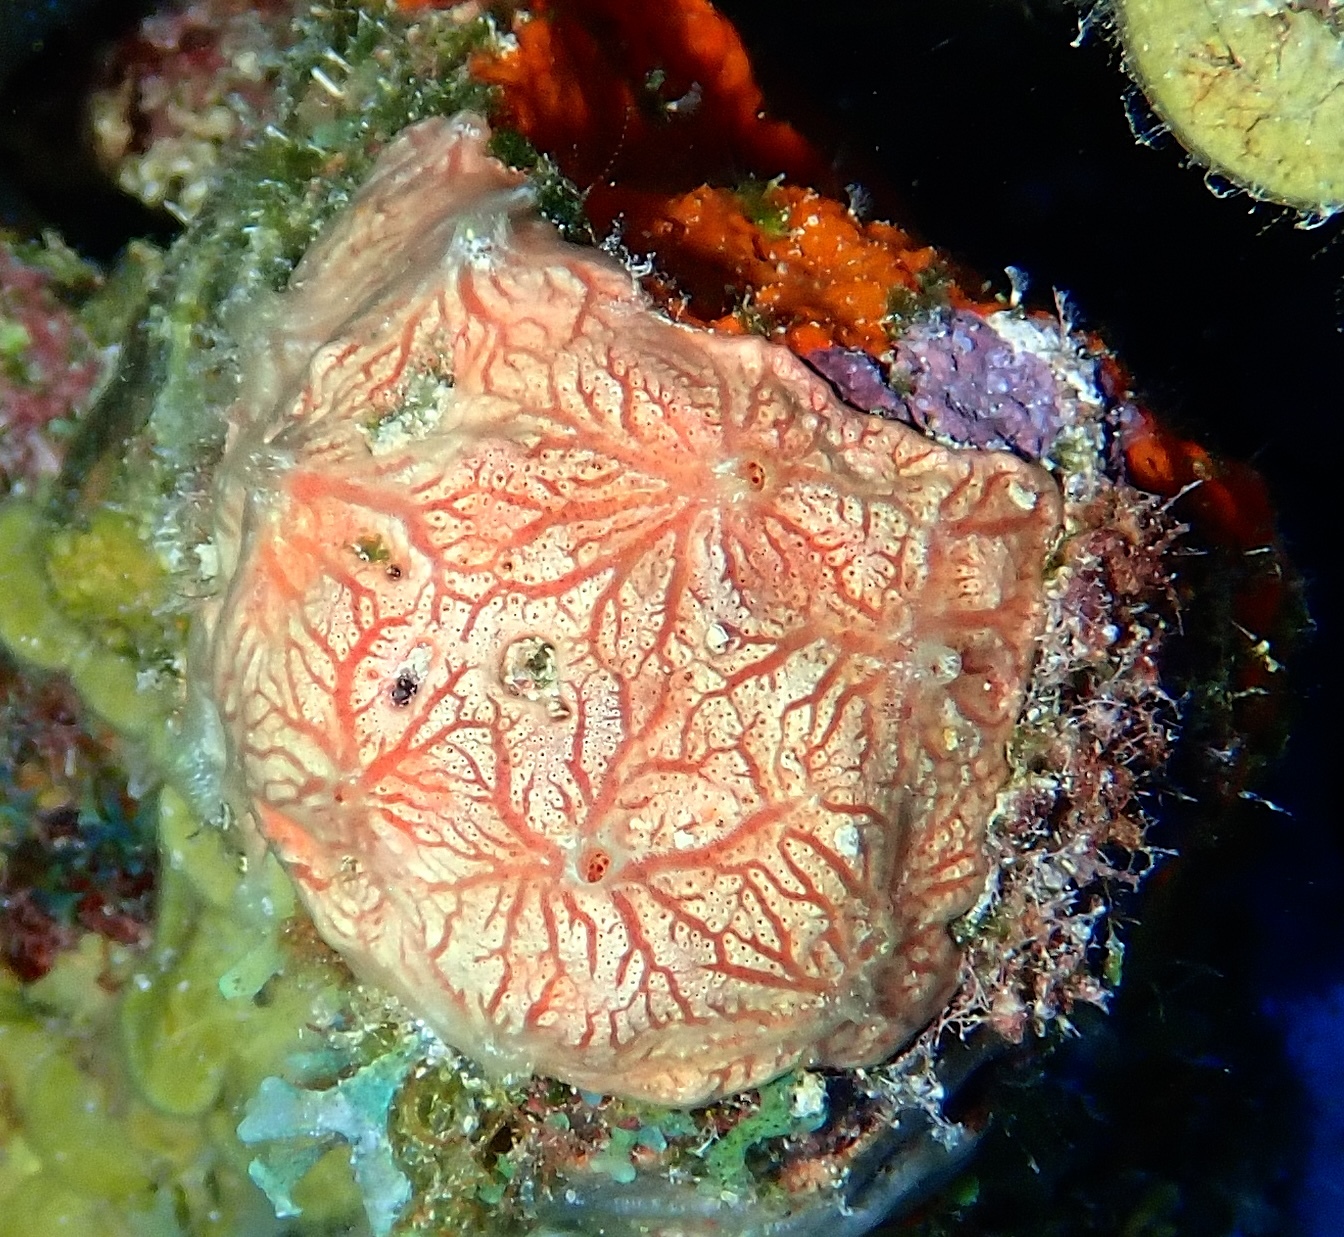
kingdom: Animalia
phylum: Porifera
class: Demospongiae
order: Poecilosclerida
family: Microcionidae
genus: Clathria
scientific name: Clathria curacaoensis
